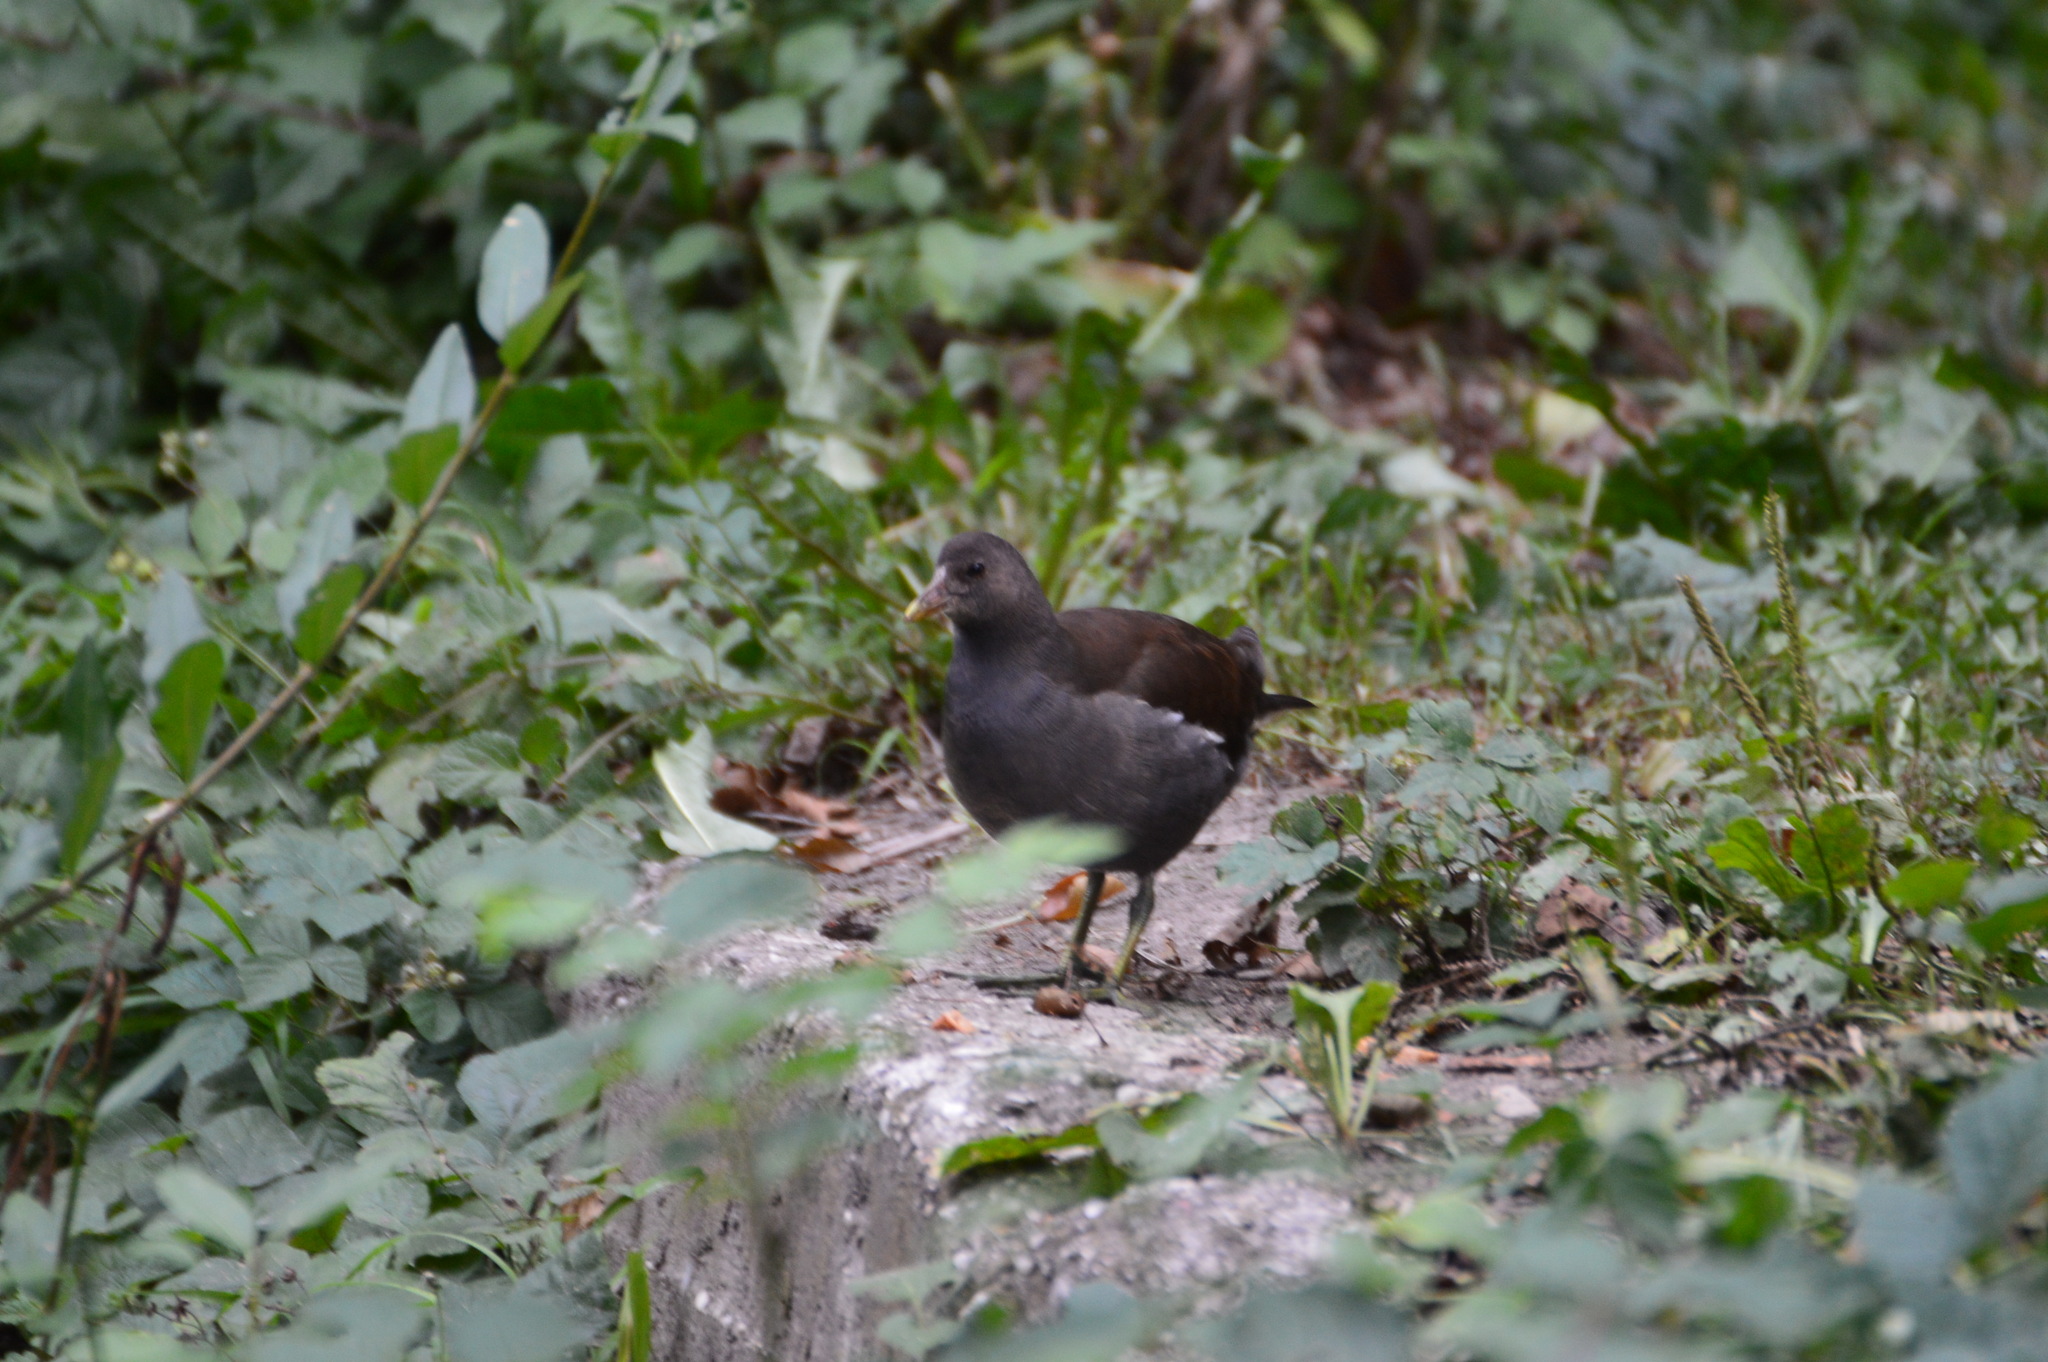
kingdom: Animalia
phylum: Chordata
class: Aves
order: Gruiformes
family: Rallidae
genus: Gallinula
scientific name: Gallinula chloropus
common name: Common moorhen
